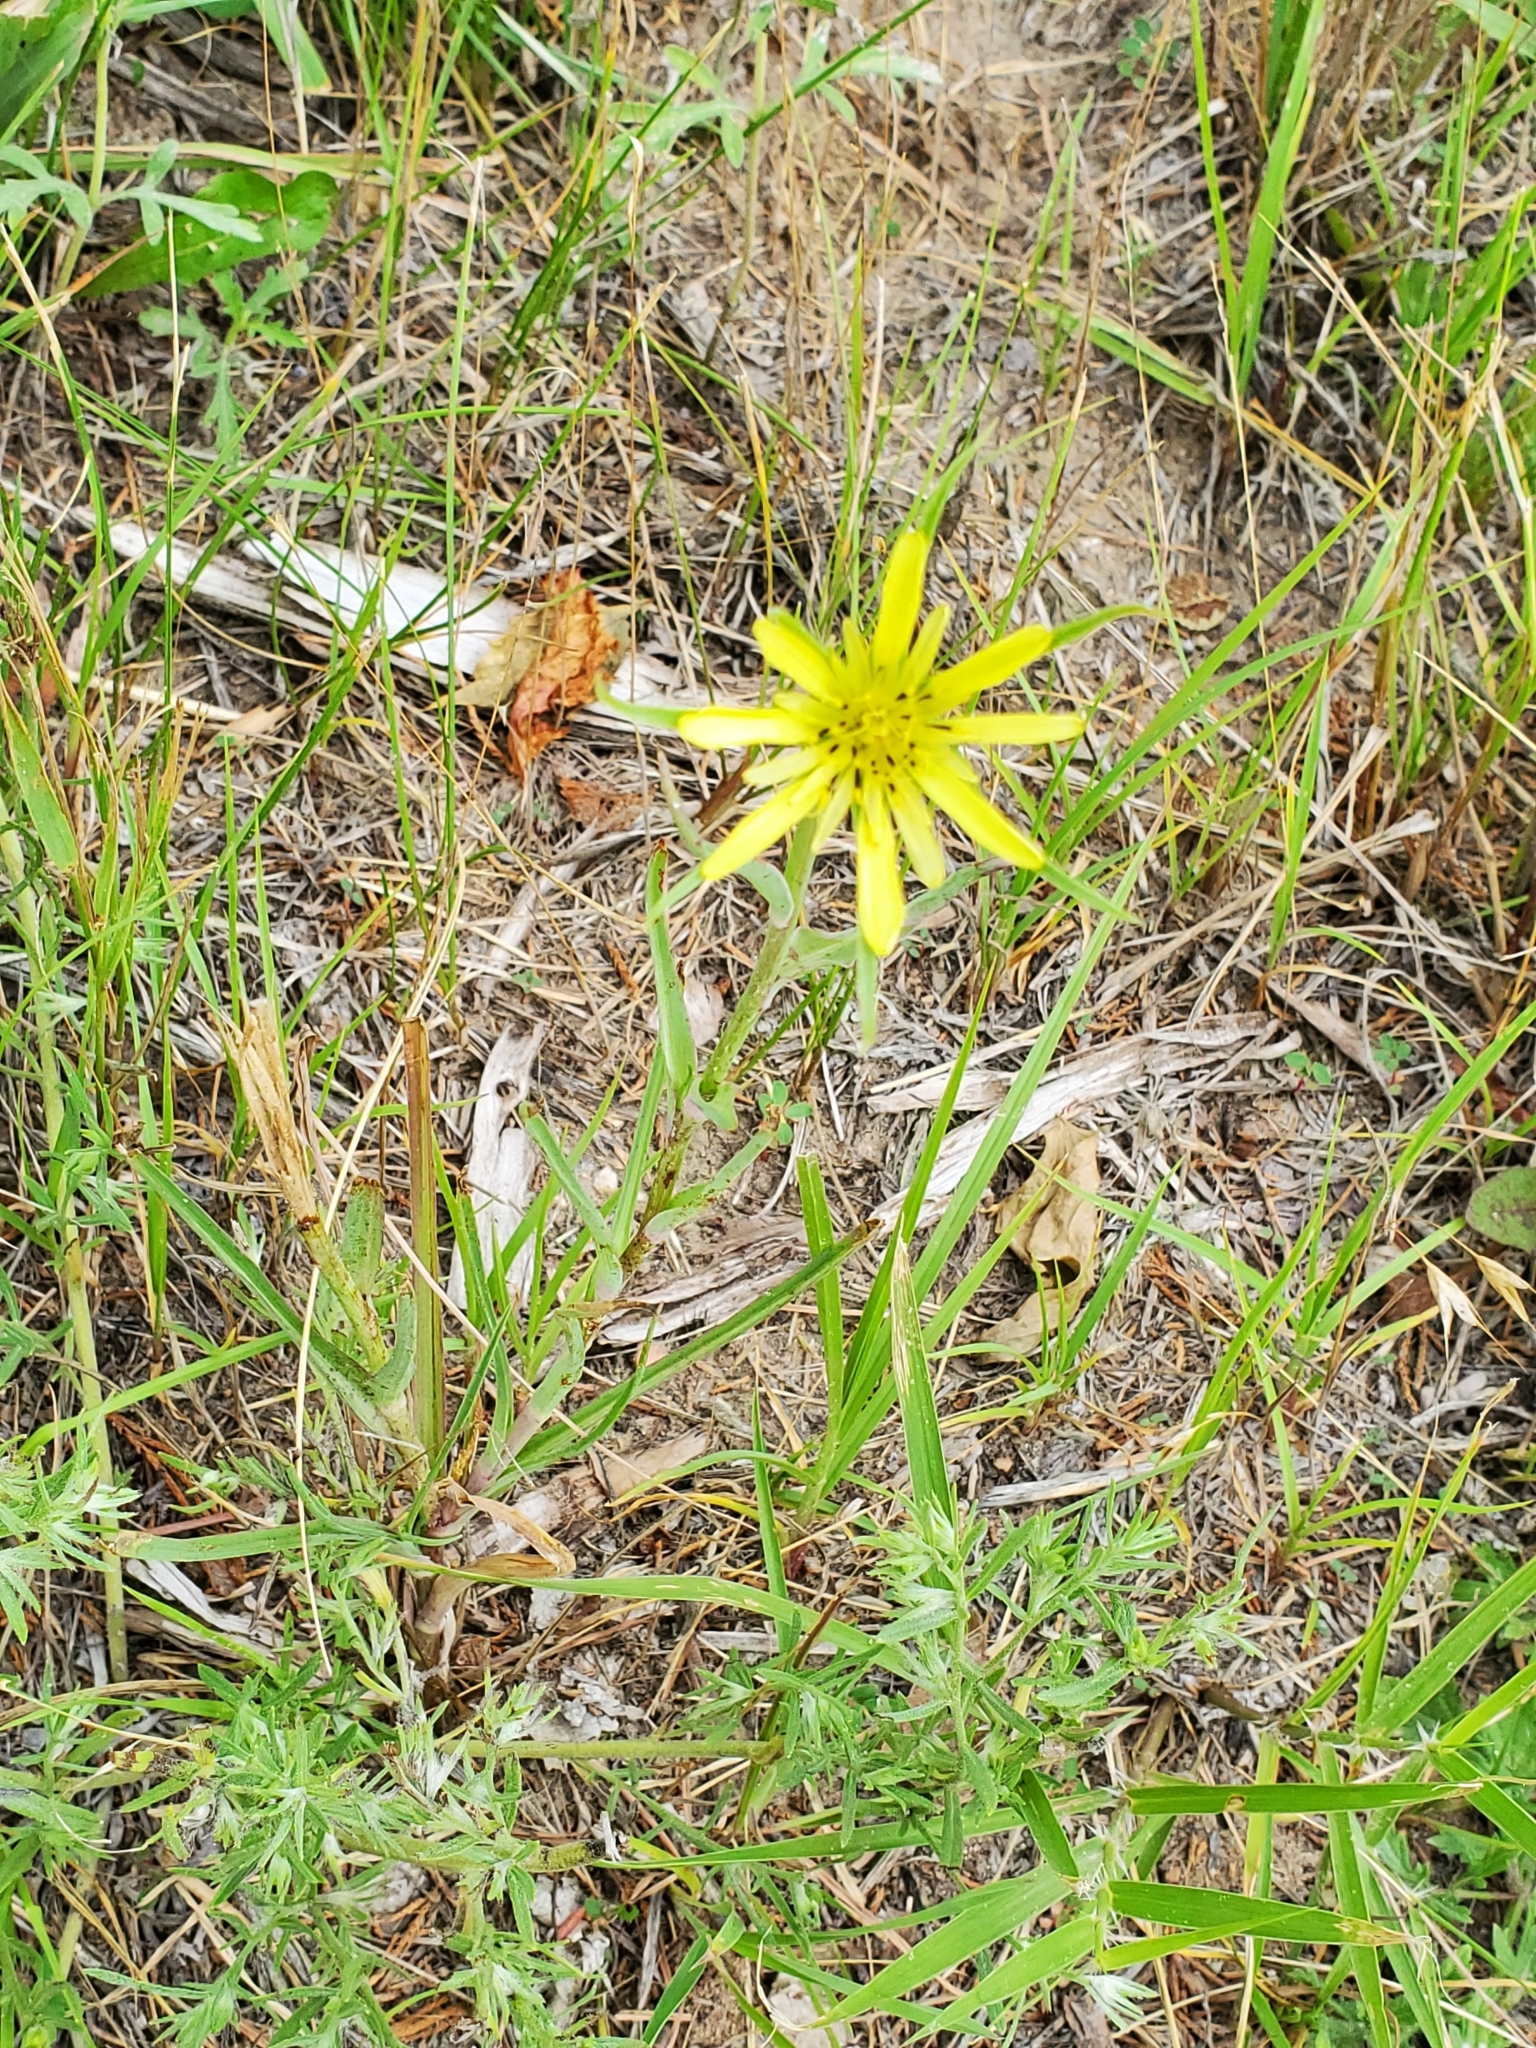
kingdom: Plantae
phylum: Tracheophyta
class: Magnoliopsida
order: Asterales
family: Asteraceae
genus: Tragopogon
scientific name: Tragopogon dubius
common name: Yellow salsify
